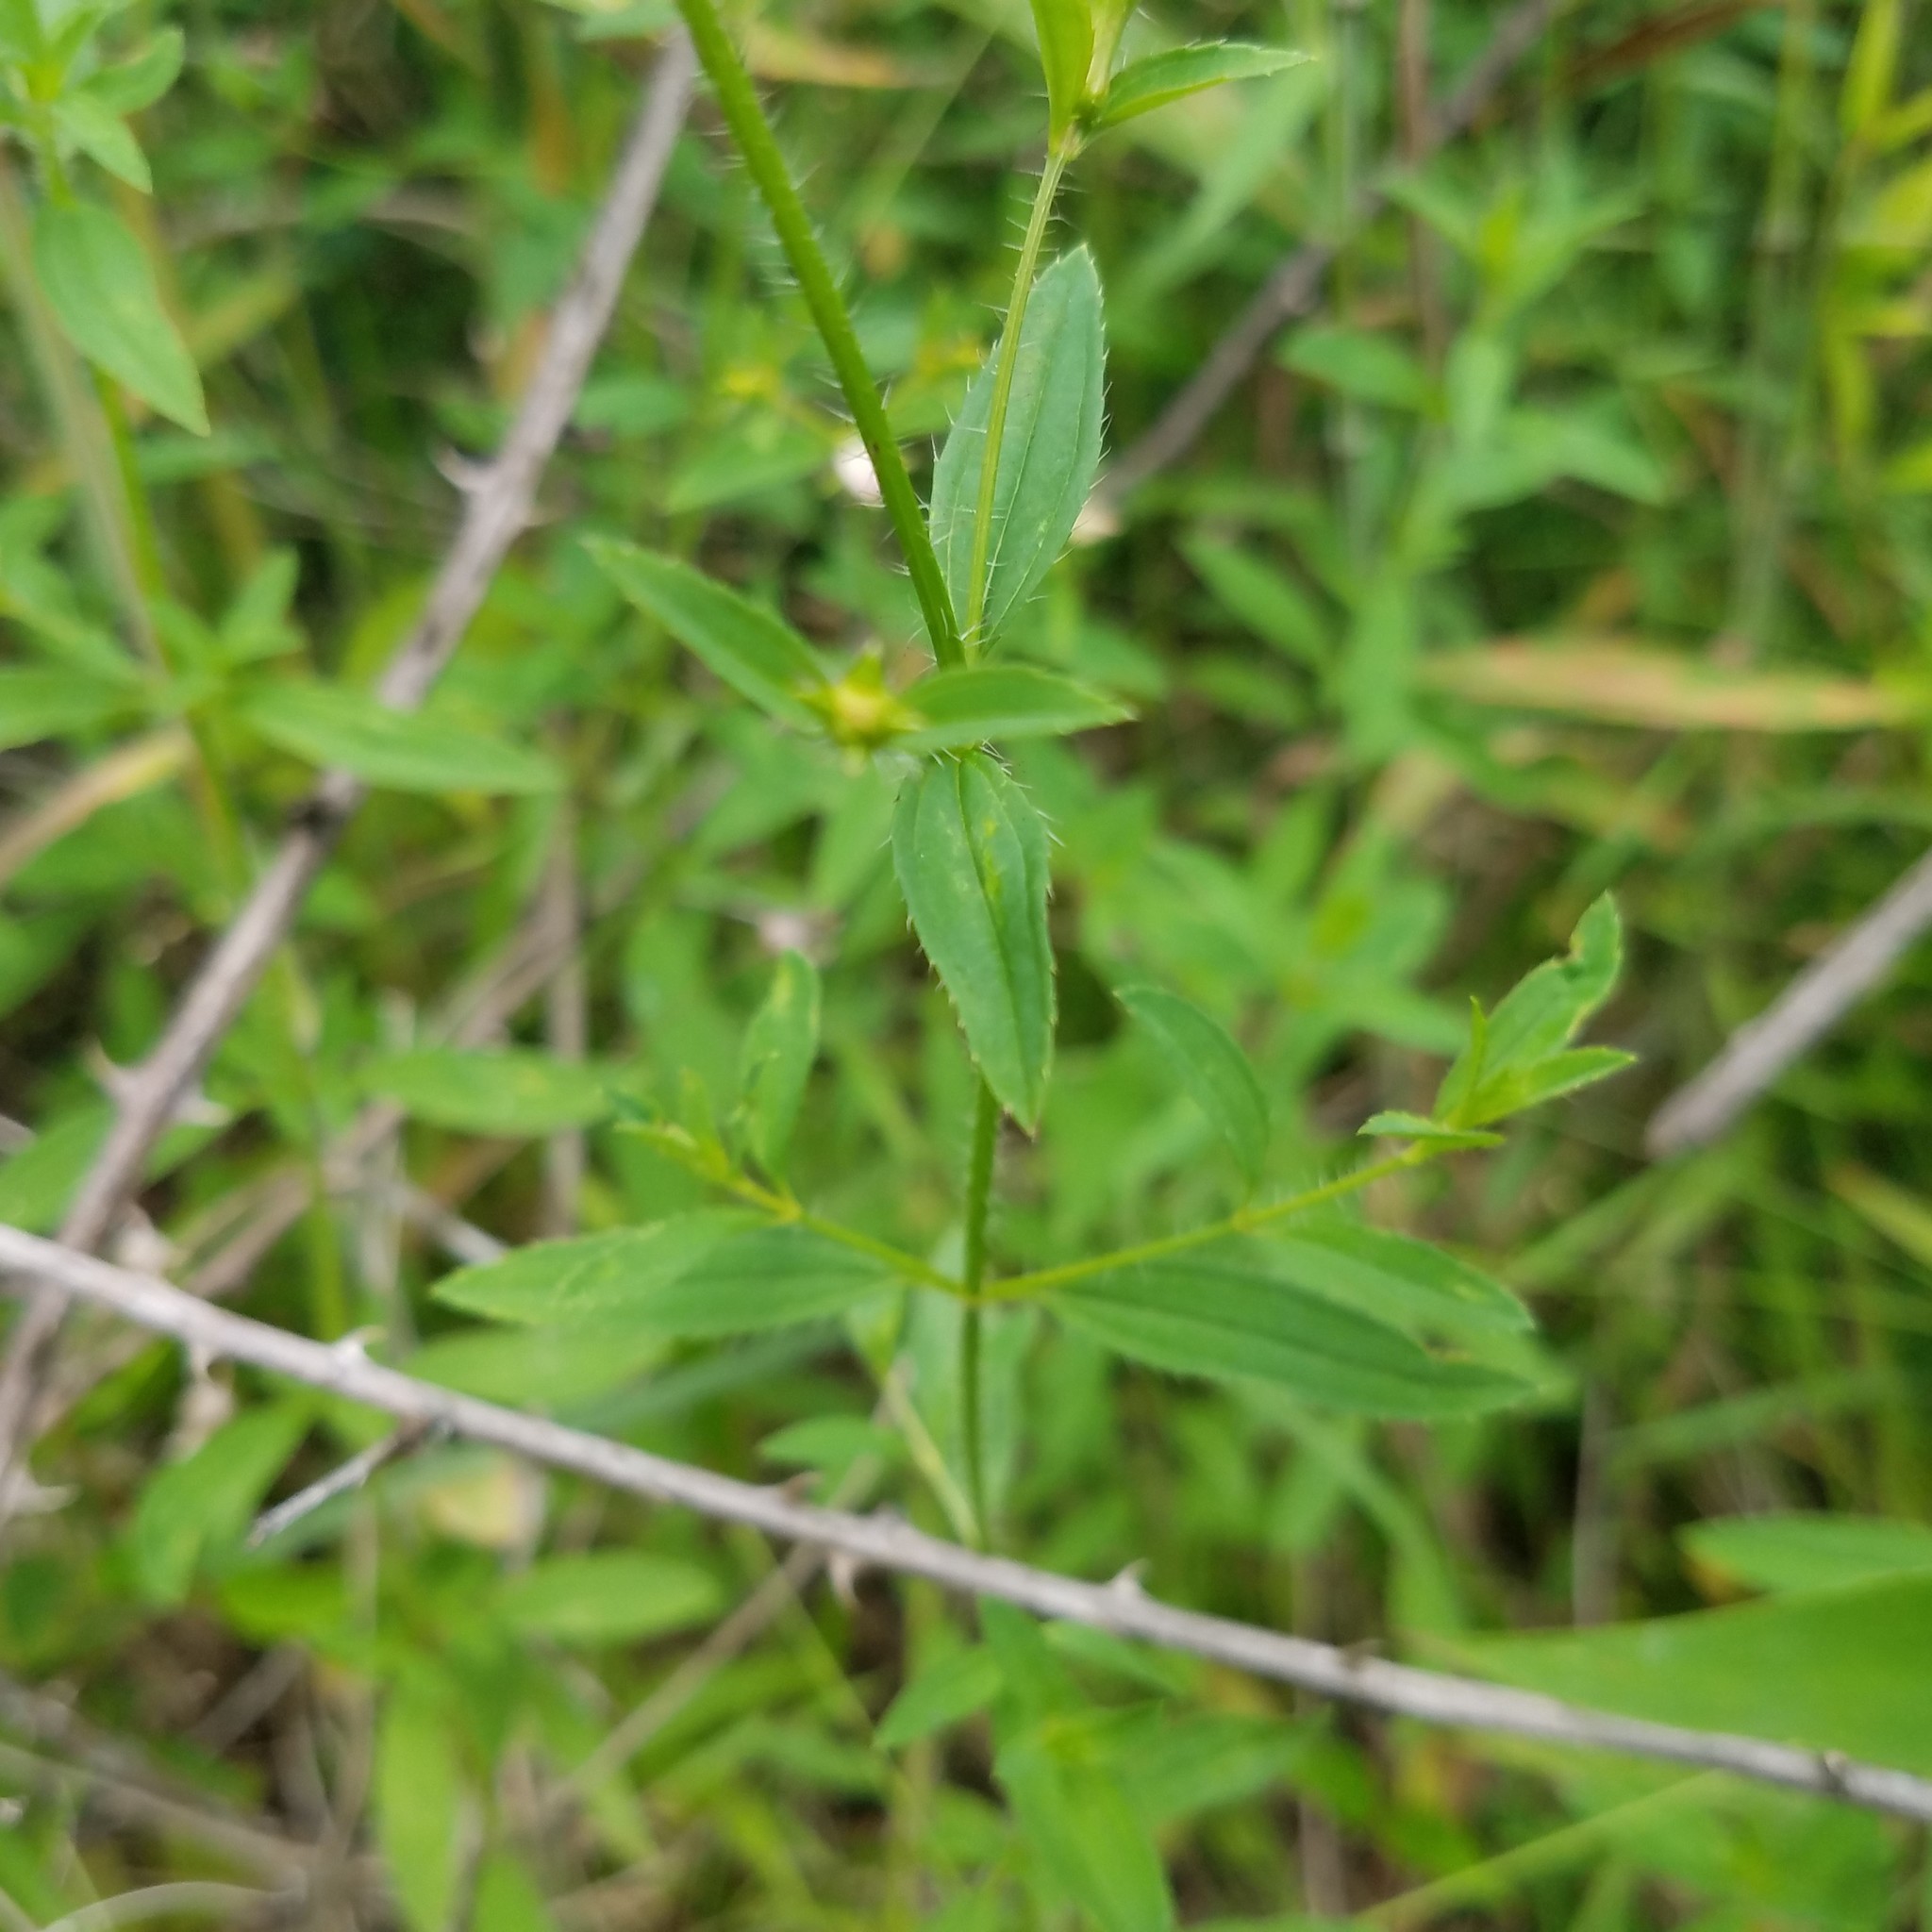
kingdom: Plantae
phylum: Tracheophyta
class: Magnoliopsida
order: Myrtales
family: Melastomataceae
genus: Rhexia
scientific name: Rhexia mariana
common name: Dull meadow-pitcher
